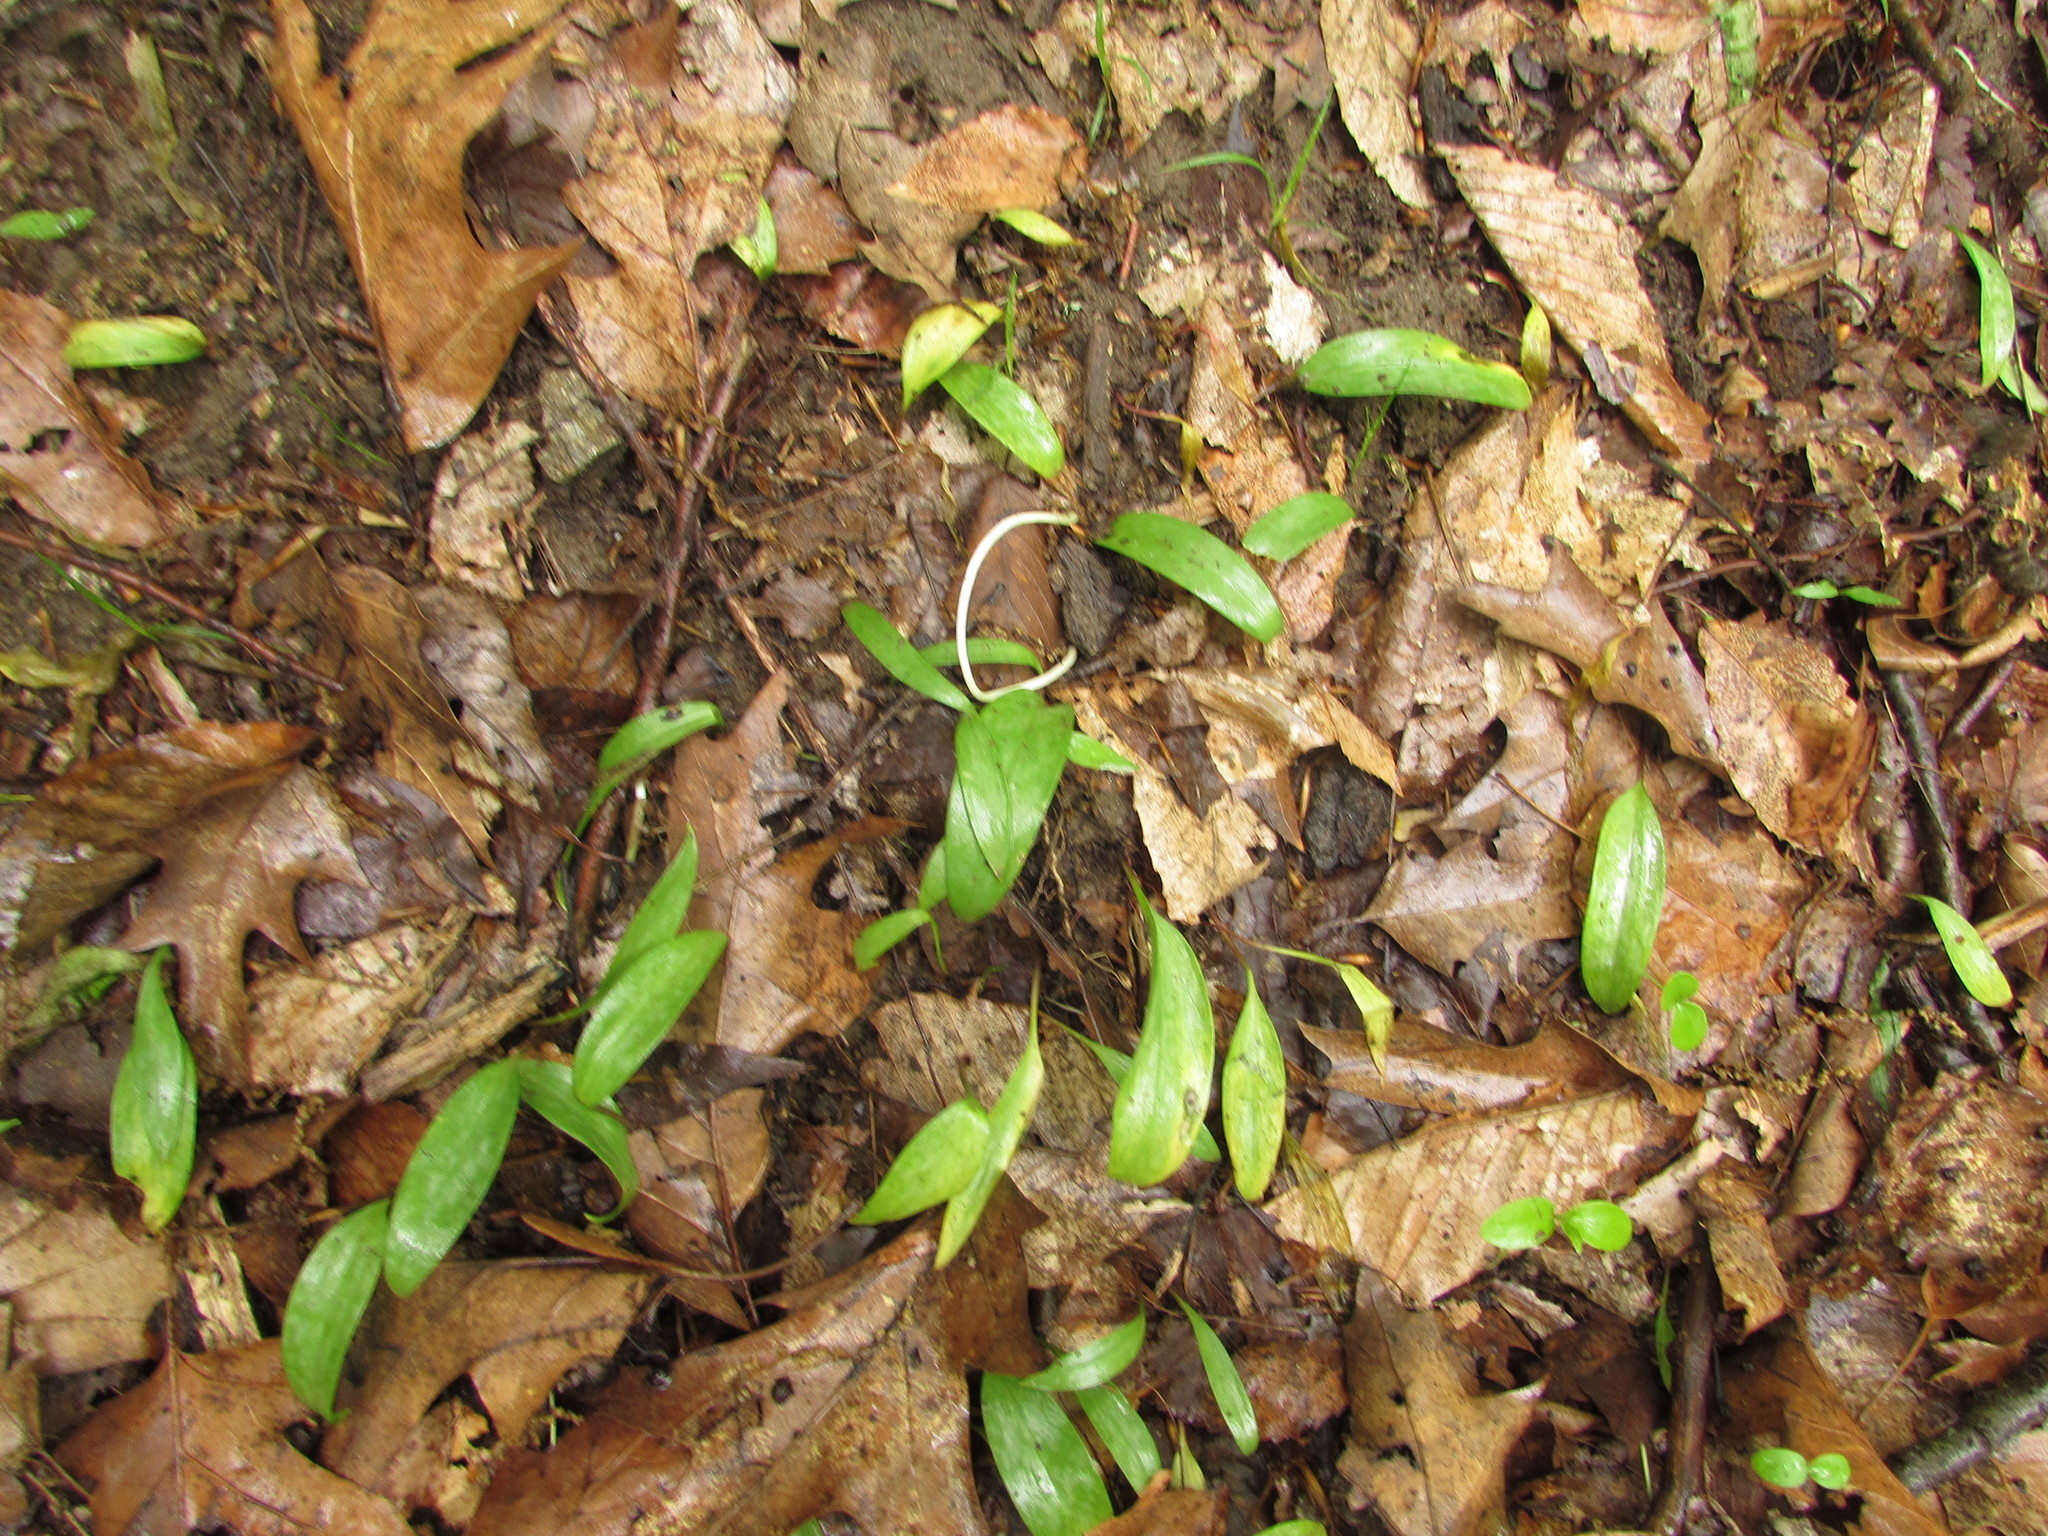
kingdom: Plantae
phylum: Tracheophyta
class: Liliopsida
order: Liliales
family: Liliaceae
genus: Erythronium
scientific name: Erythronium americanum
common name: Yellow adder's-tongue
